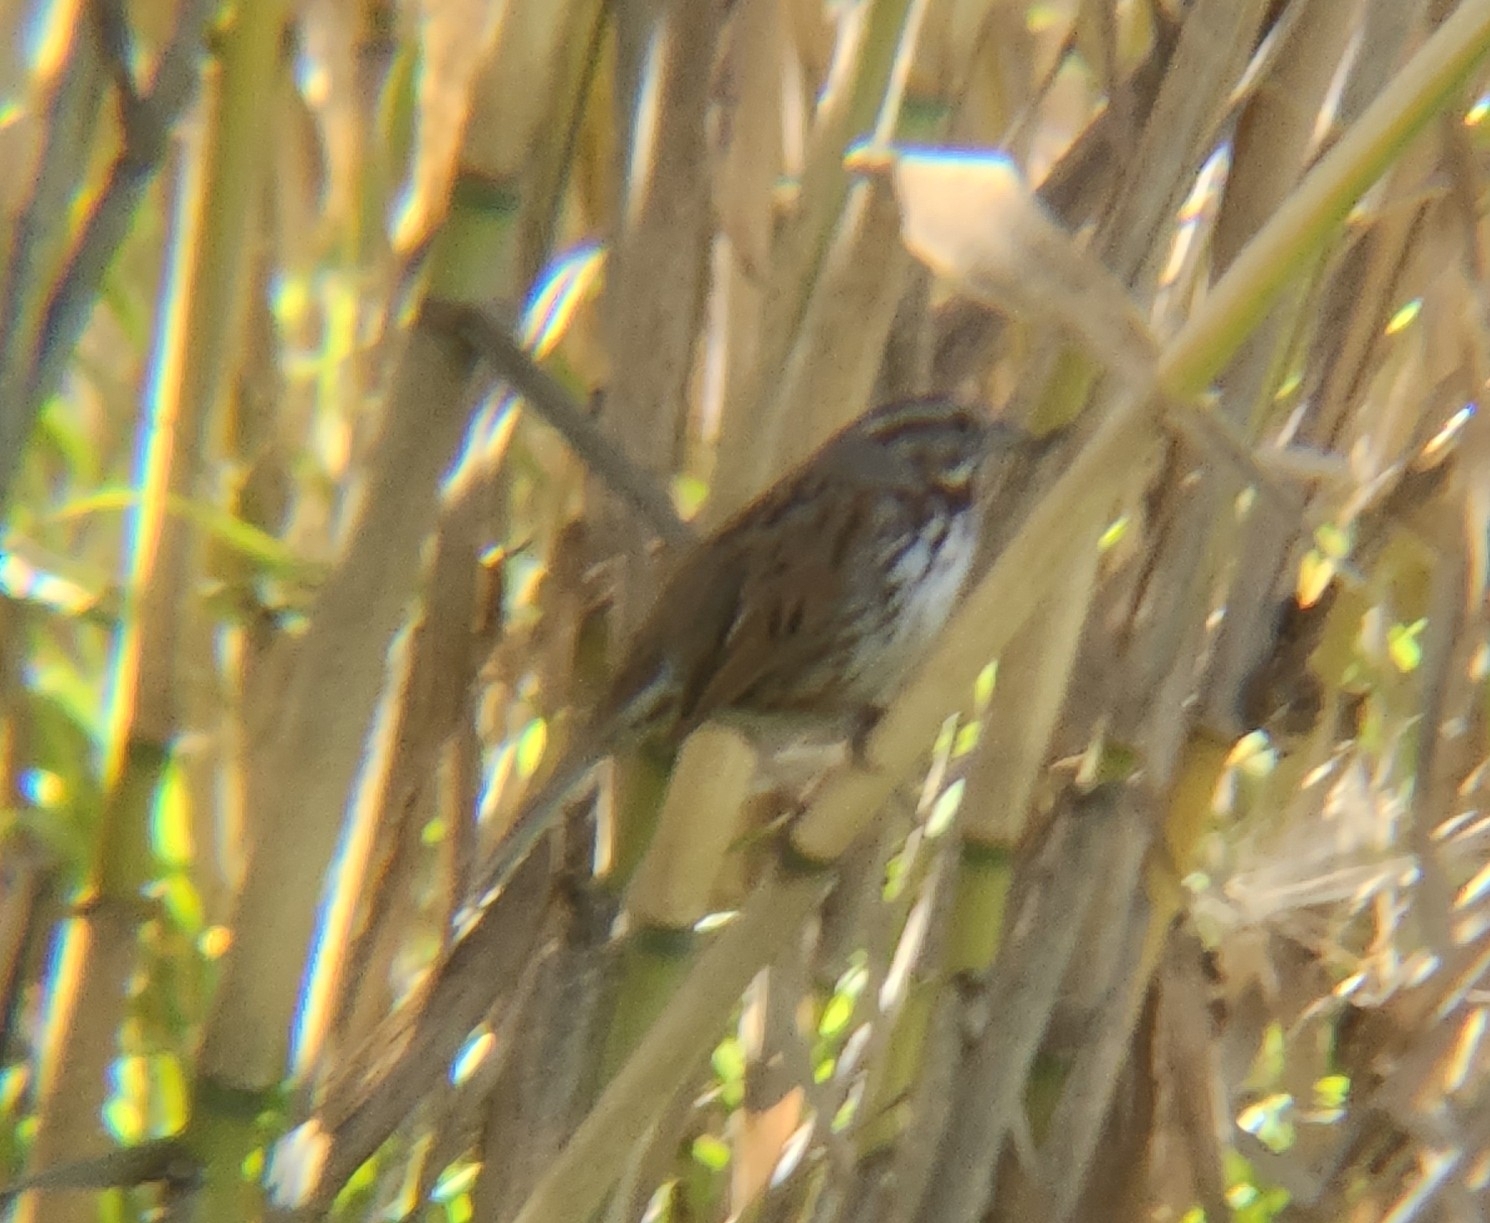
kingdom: Animalia
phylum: Chordata
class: Aves
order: Passeriformes
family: Passerellidae
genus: Melospiza
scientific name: Melospiza melodia
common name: Song sparrow
